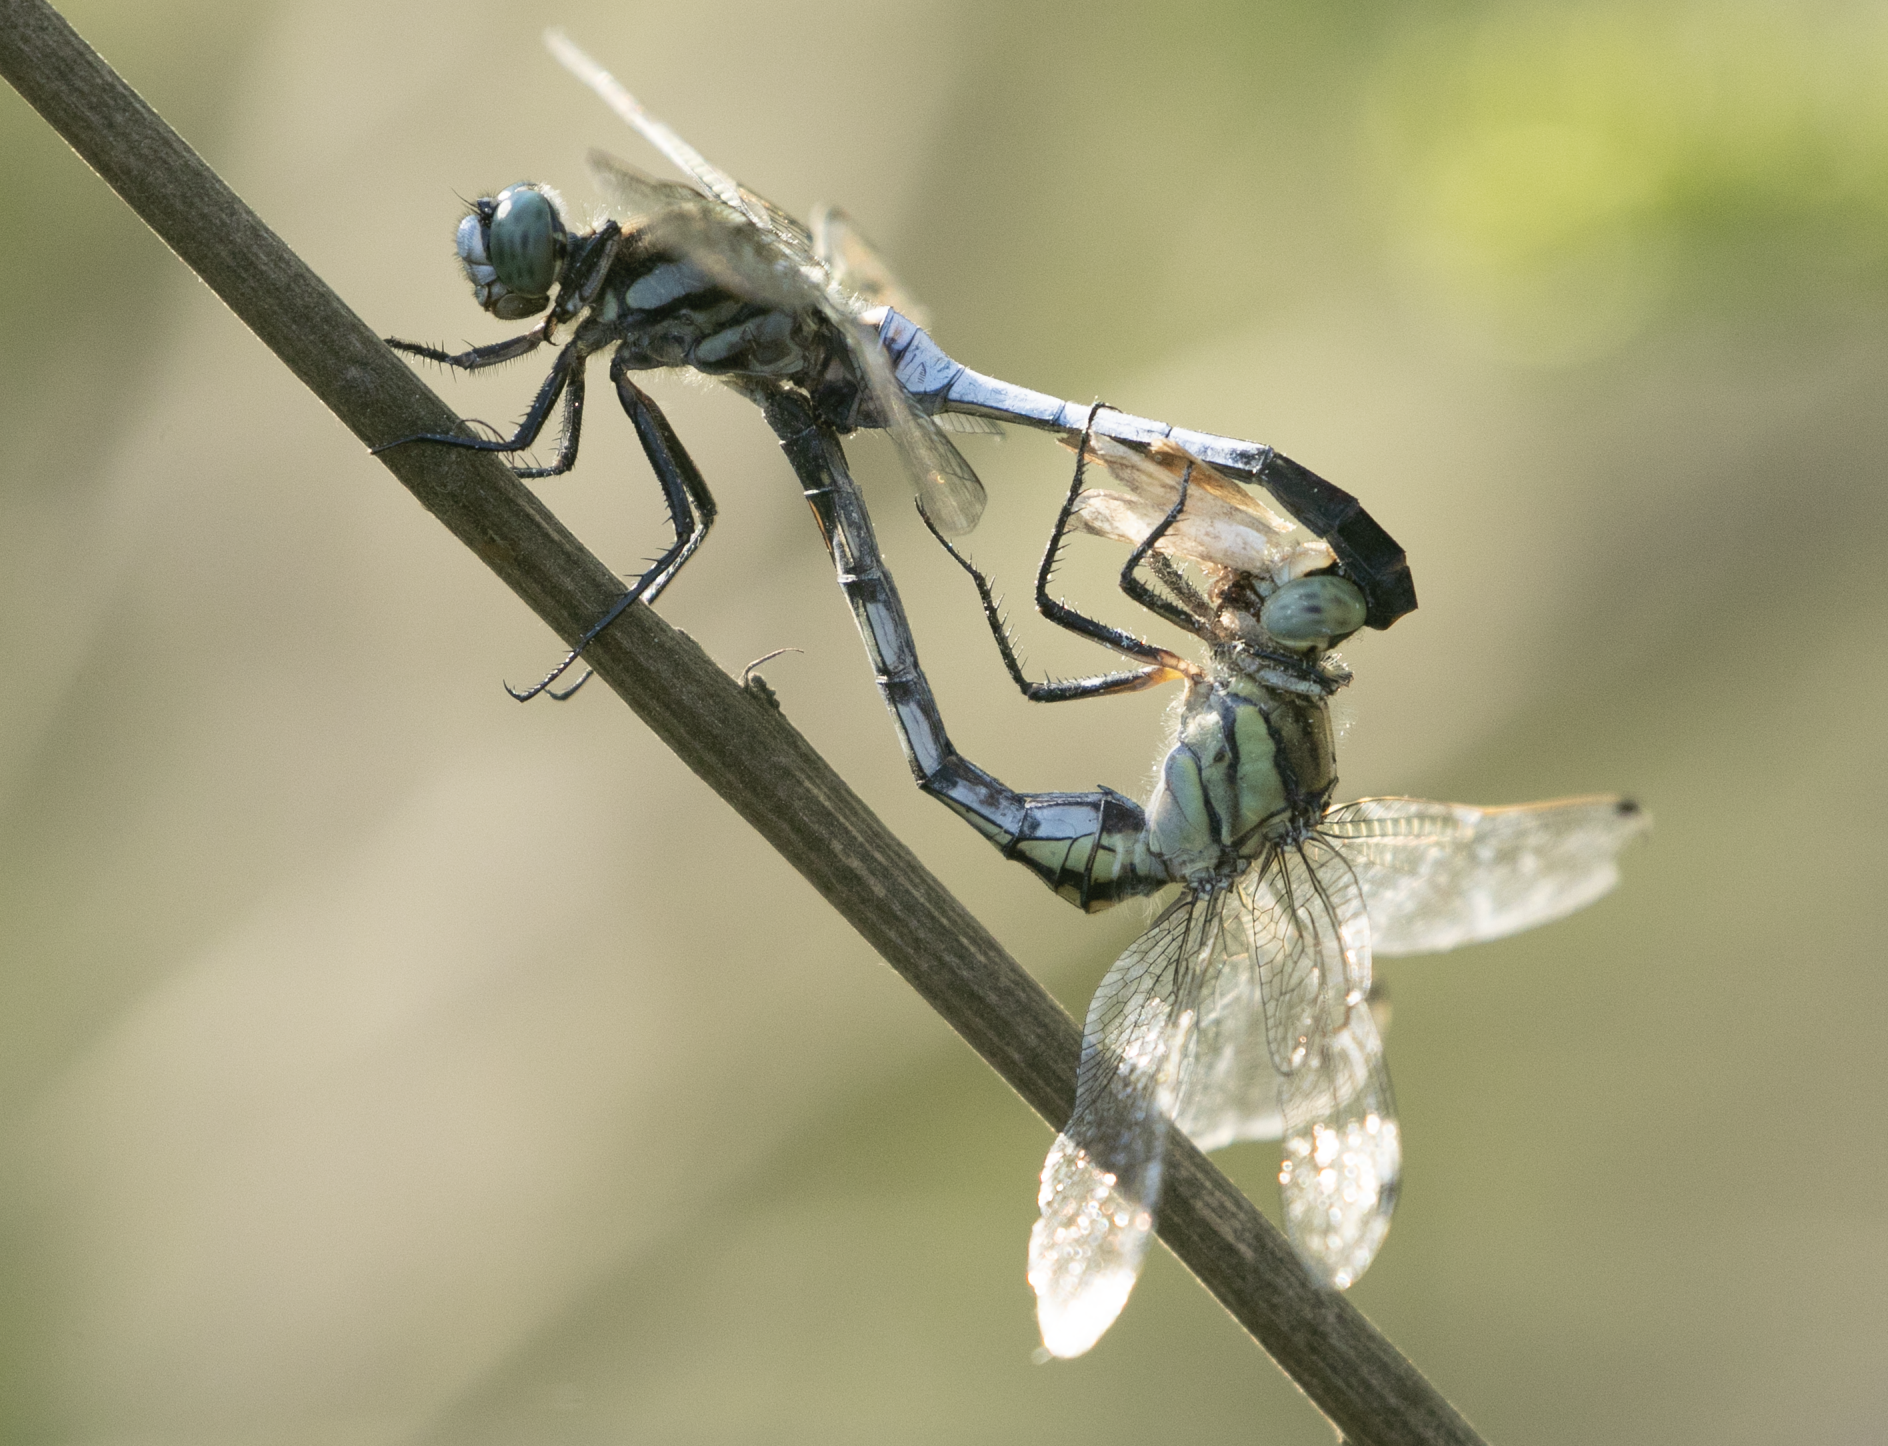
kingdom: Animalia
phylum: Arthropoda
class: Insecta
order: Odonata
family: Libellulidae
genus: Orthetrum
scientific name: Orthetrum albistylum
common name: White-tailed skimmer
